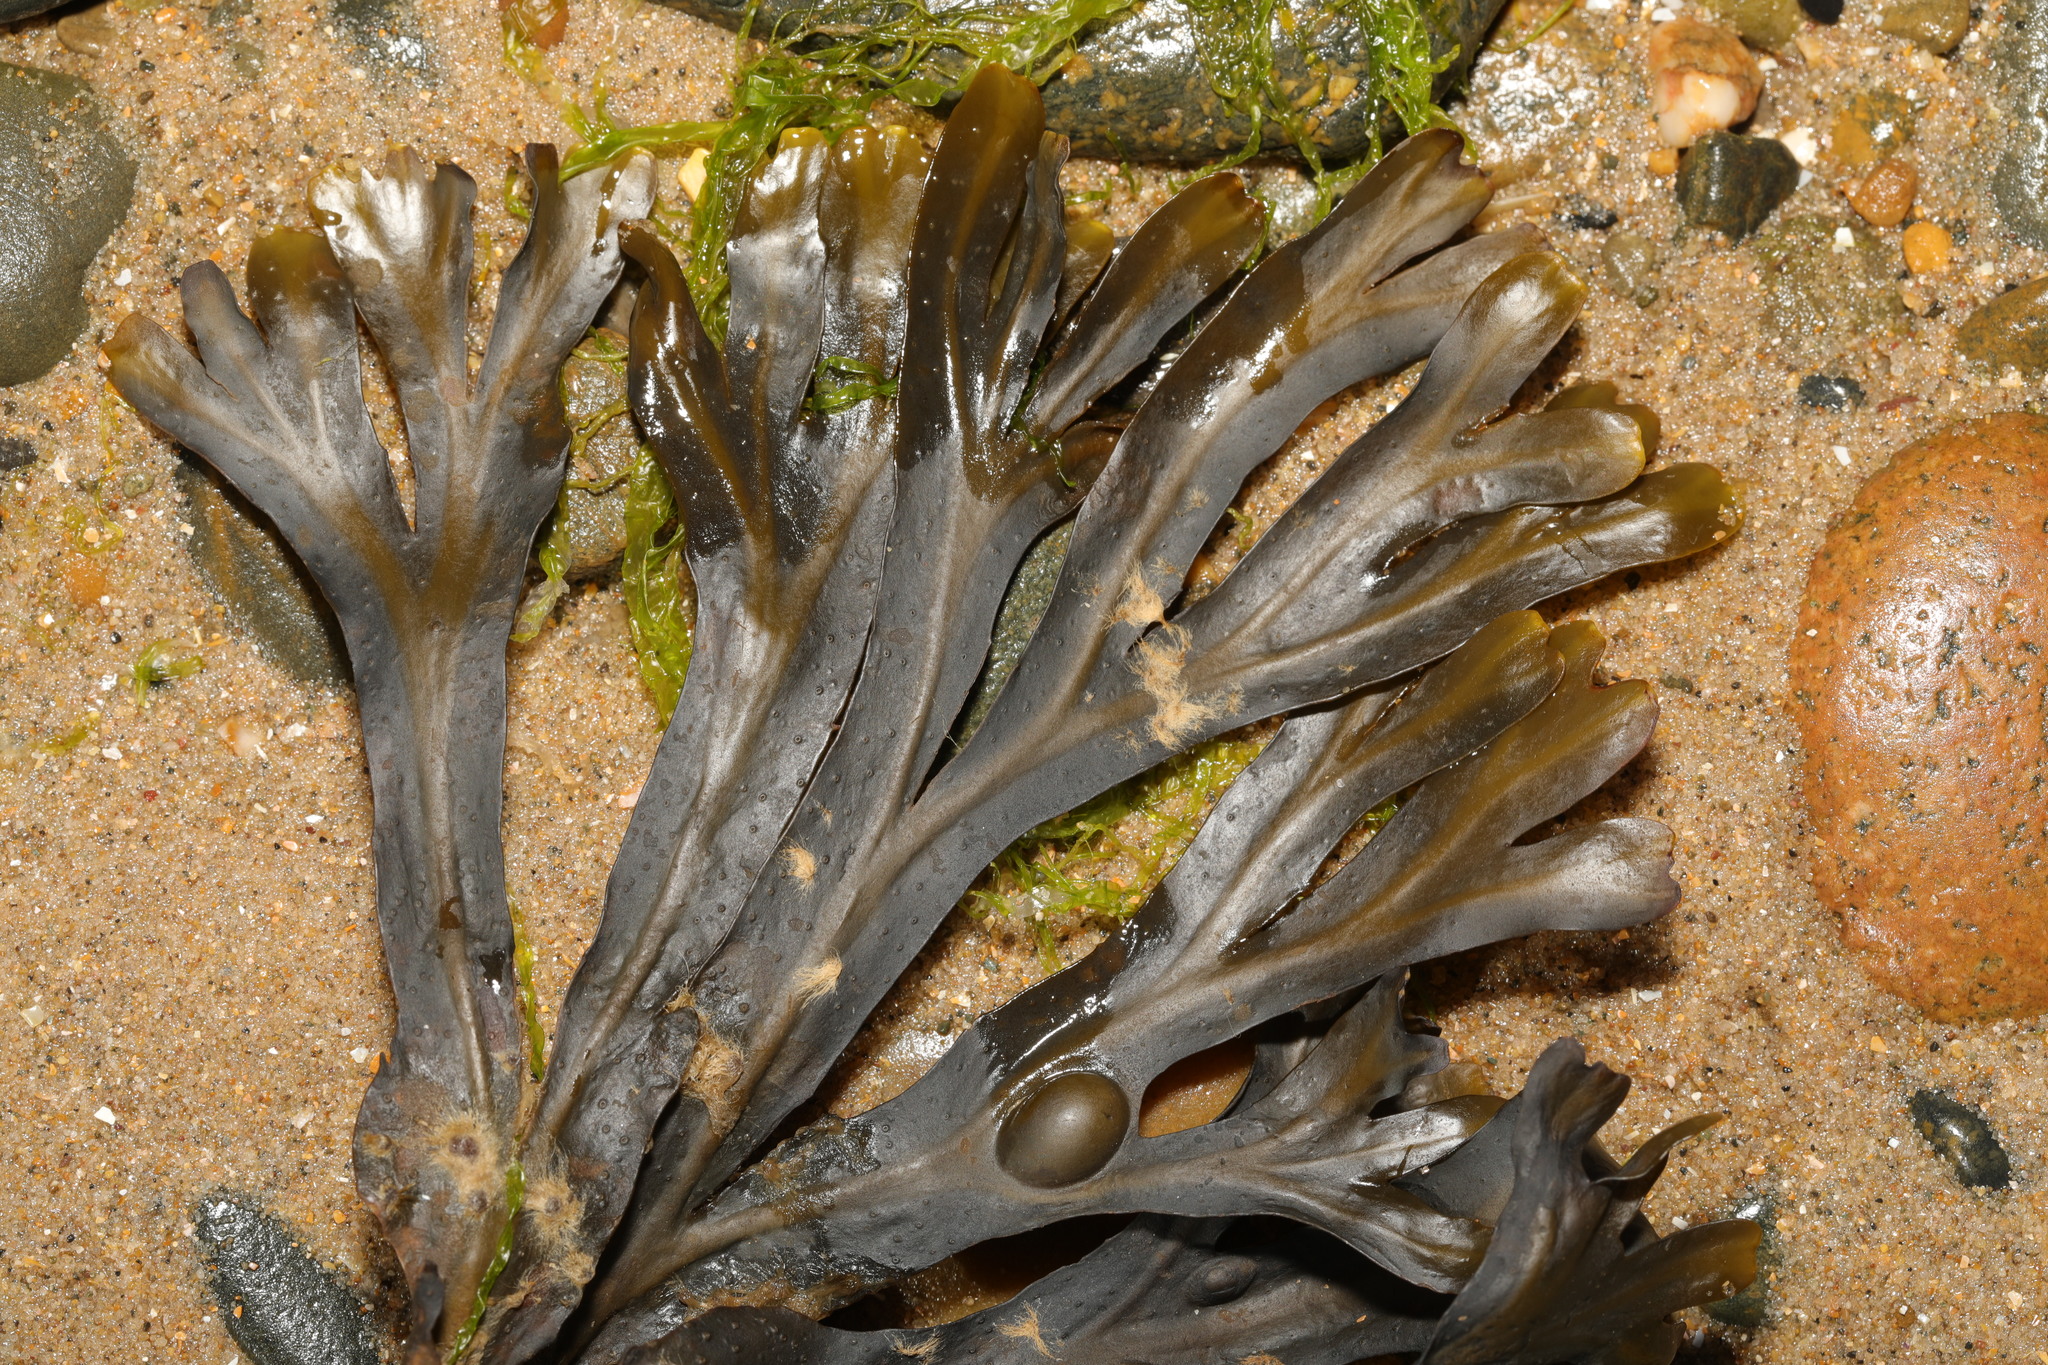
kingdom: Chromista
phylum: Ochrophyta
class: Phaeophyceae
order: Fucales
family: Fucaceae
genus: Fucus
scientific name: Fucus vesiculosus
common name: Bladder wrack
